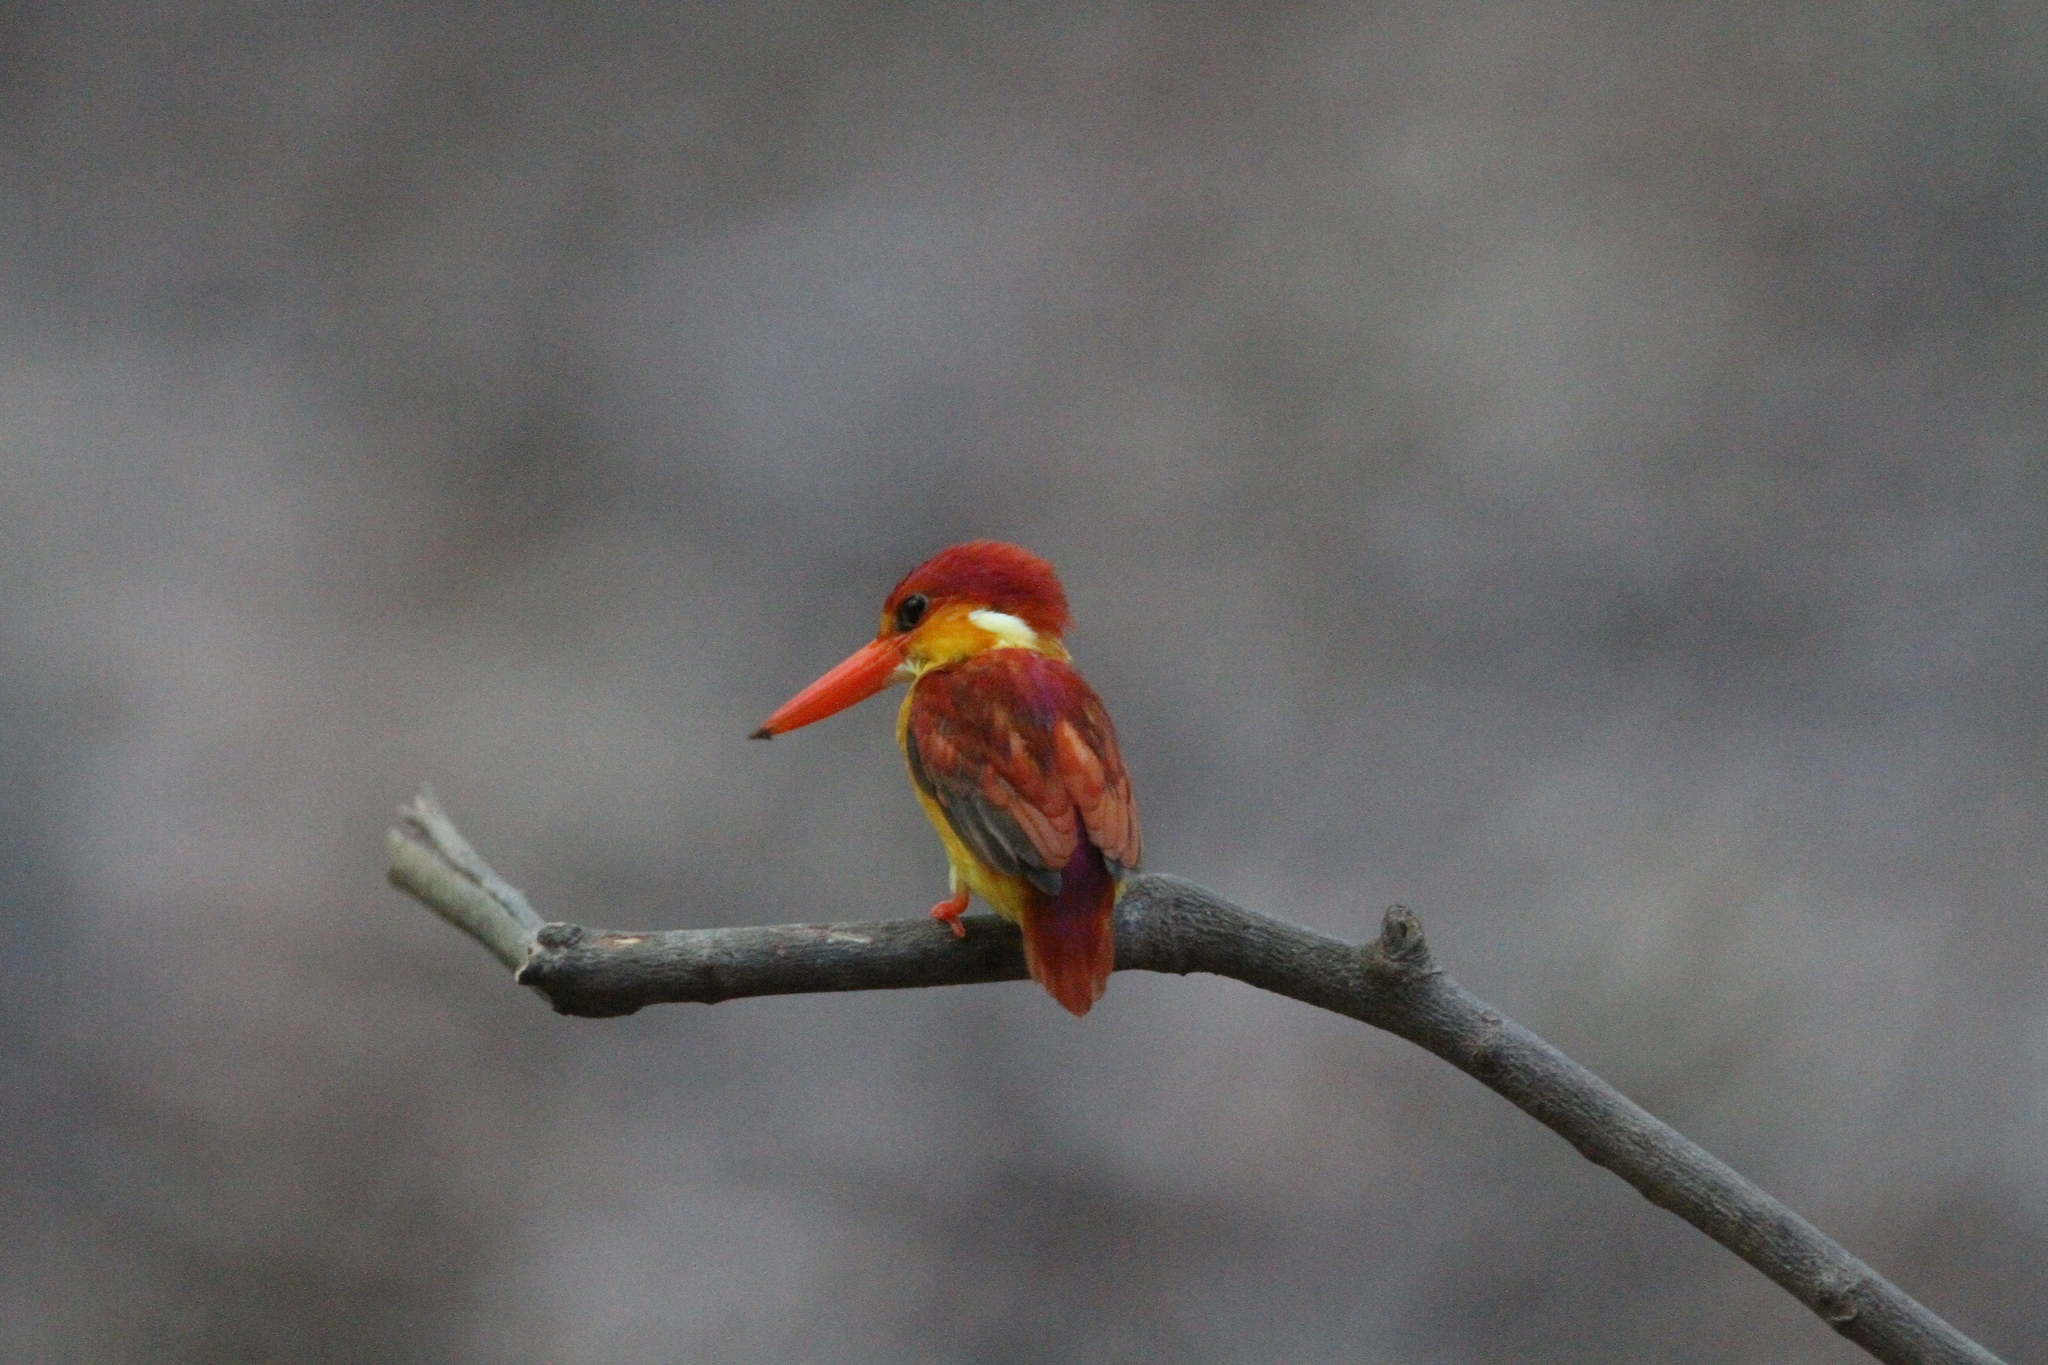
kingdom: Animalia
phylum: Chordata
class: Aves
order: Coraciiformes
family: Alcedinidae
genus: Ceyx
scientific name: Ceyx erithaca
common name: Oriental dwarf kingfisher
